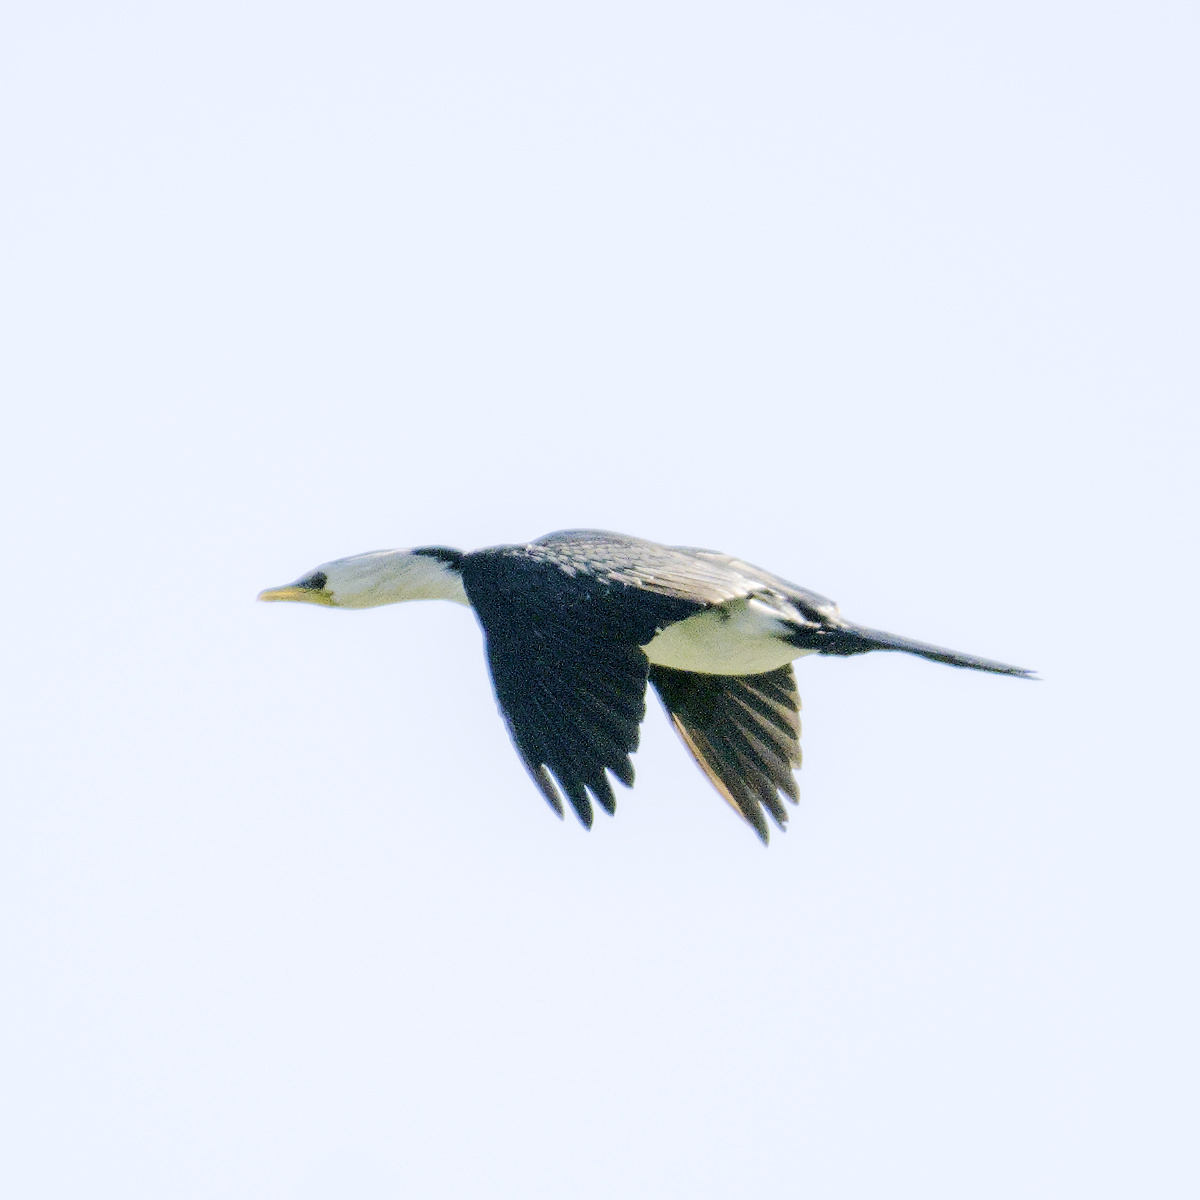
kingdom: Animalia
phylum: Chordata
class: Aves
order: Suliformes
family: Phalacrocoracidae
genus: Microcarbo
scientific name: Microcarbo melanoleucos
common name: Little pied cormorant
